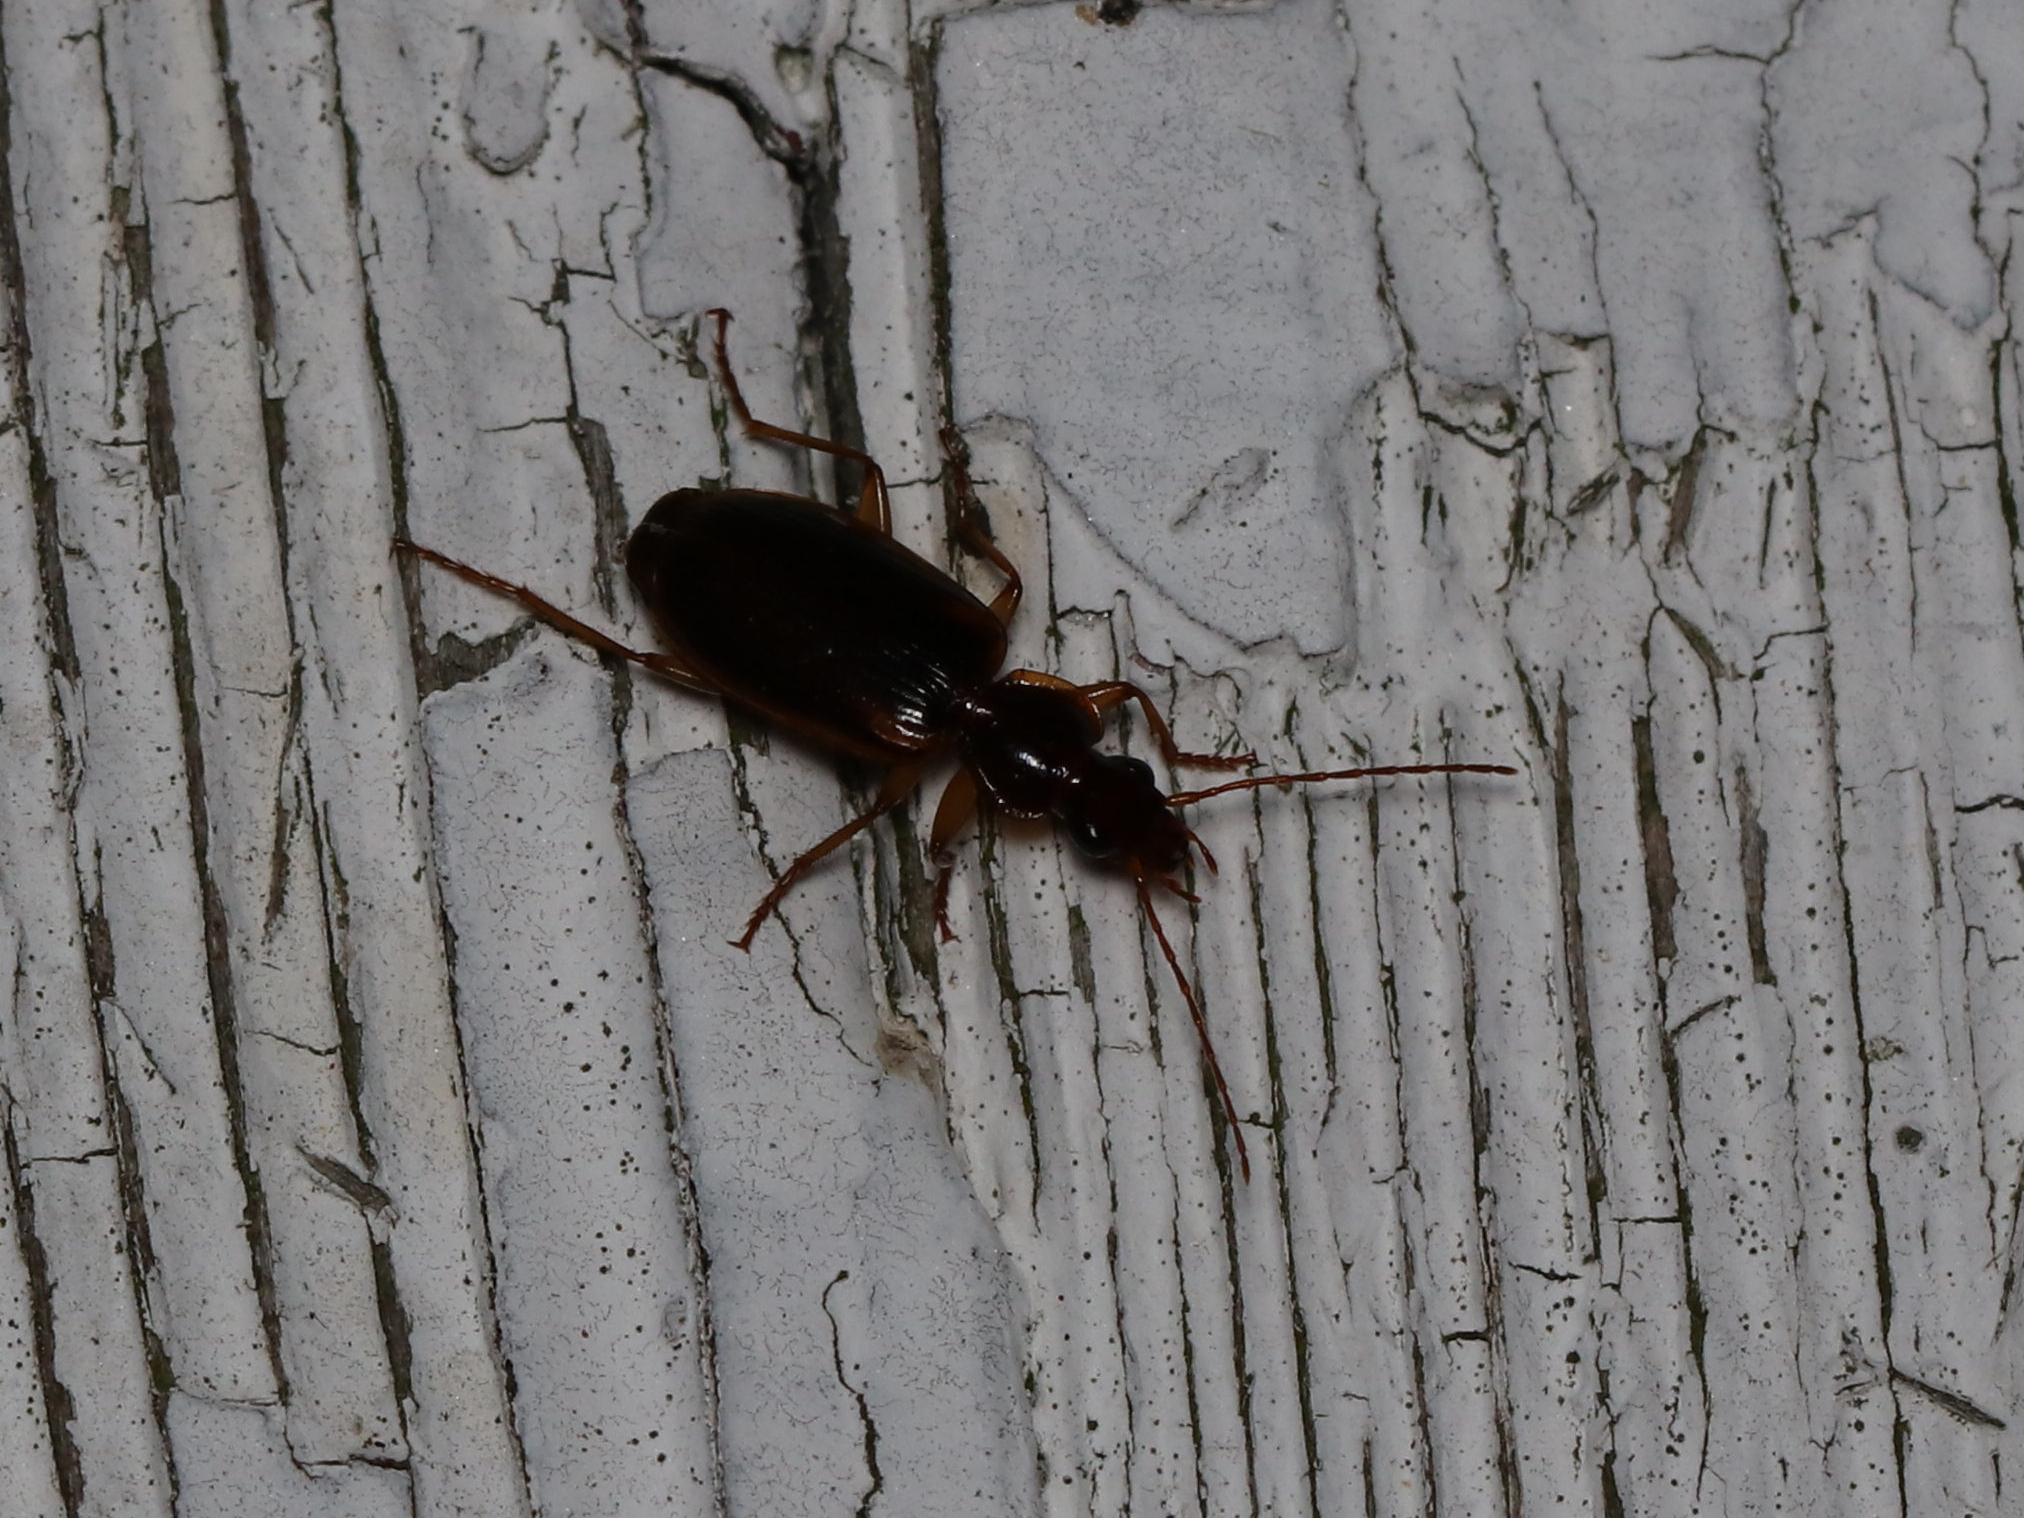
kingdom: Animalia
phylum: Arthropoda
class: Insecta
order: Coleoptera
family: Carabidae
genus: Pinacodera
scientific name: Pinacodera limbata
